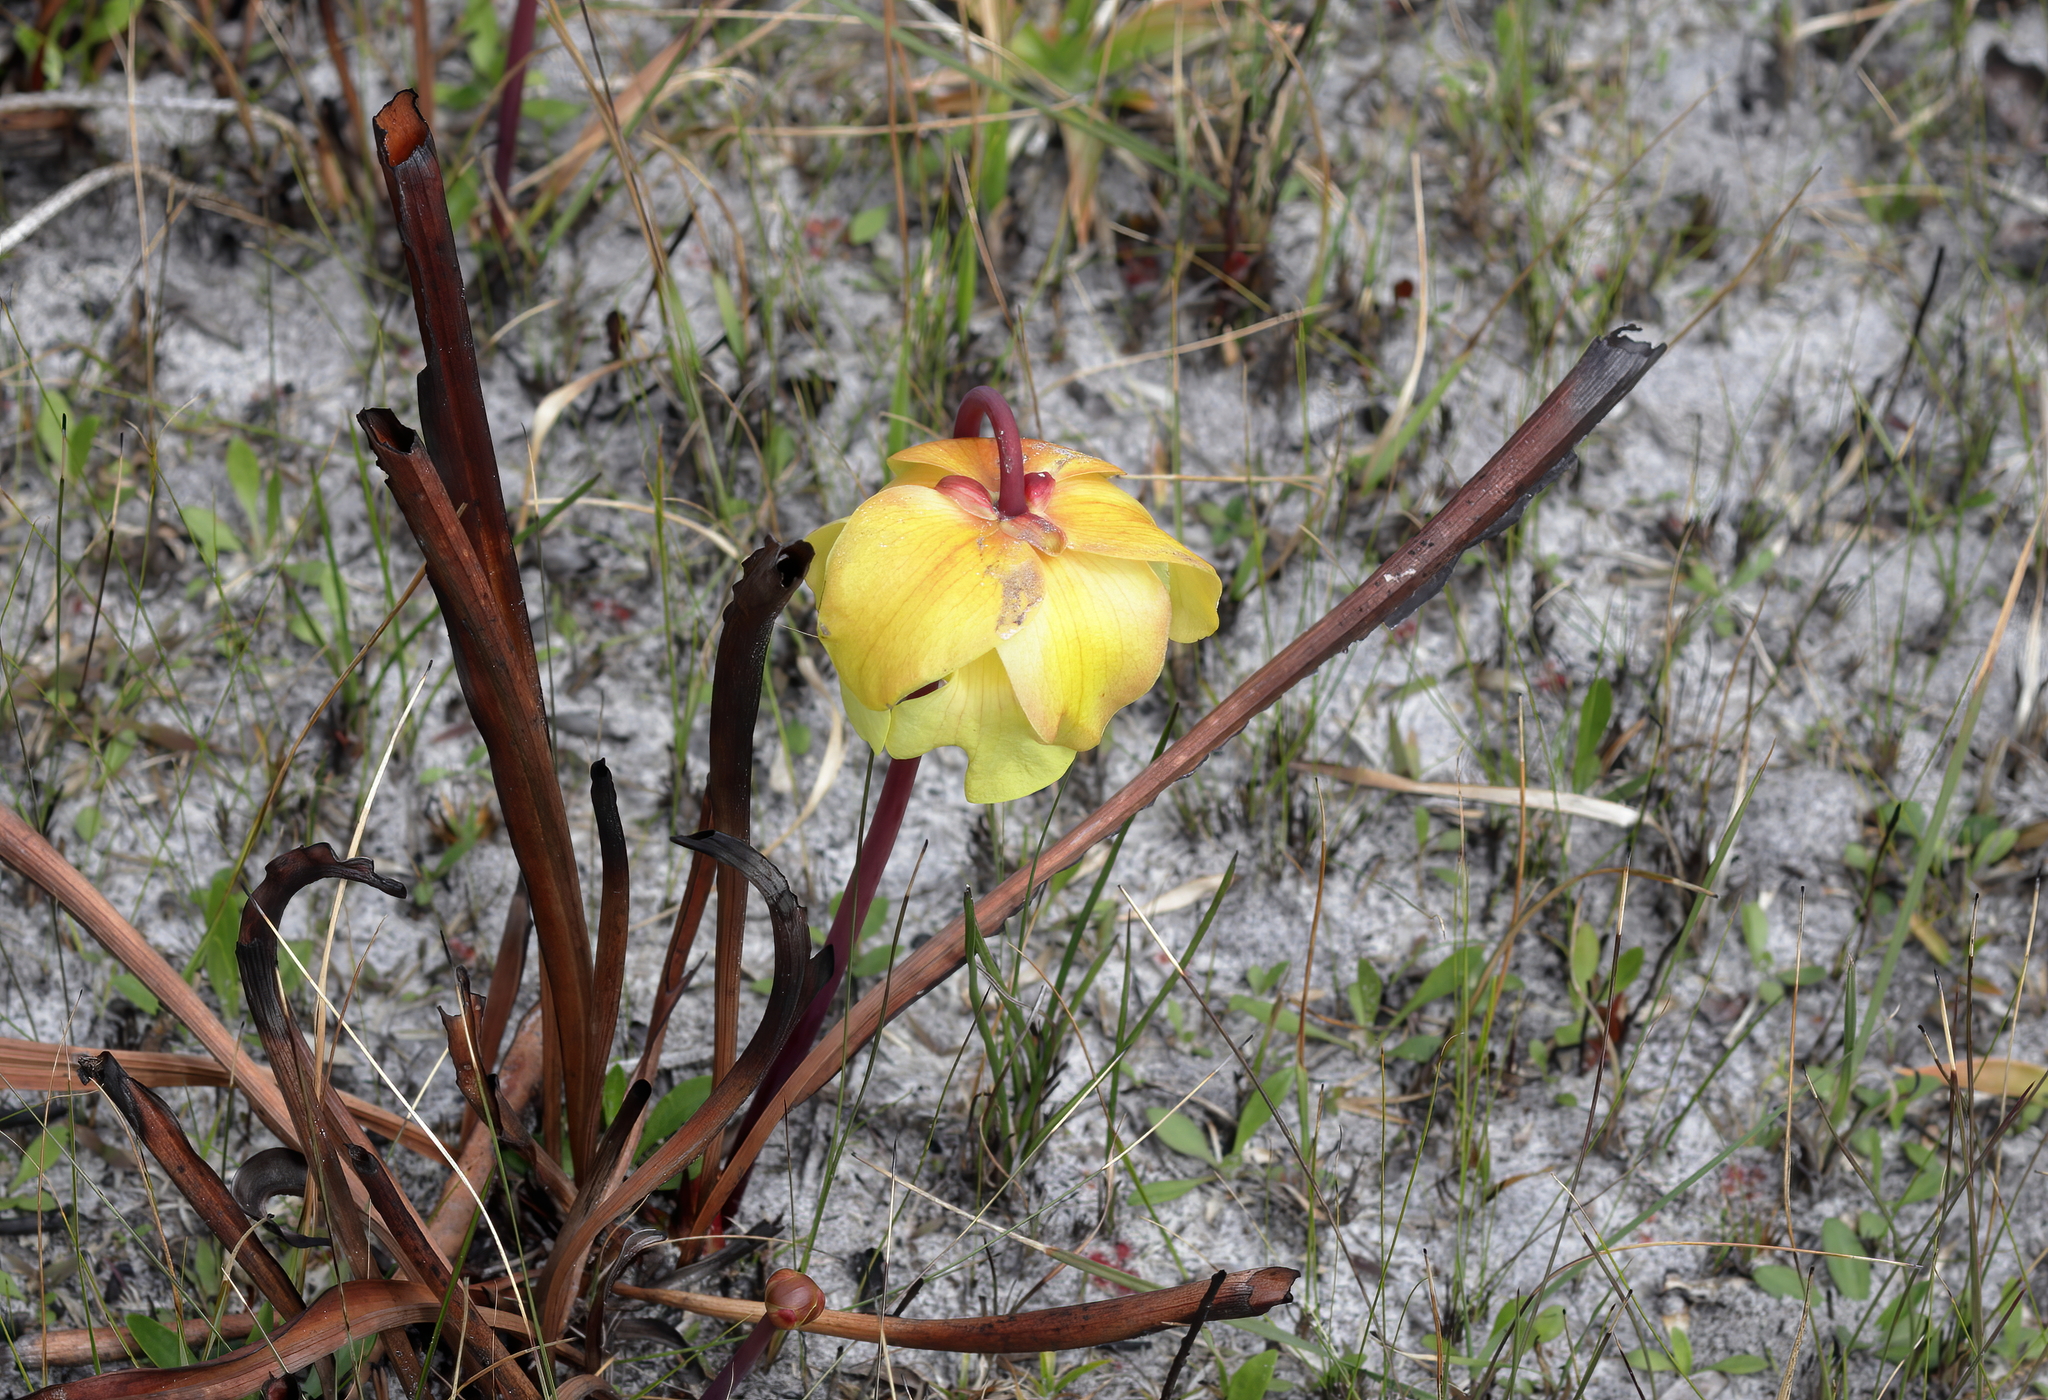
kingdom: Plantae
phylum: Tracheophyta
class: Magnoliopsida
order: Ericales
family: Sarraceniaceae
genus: Sarracenia
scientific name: Sarracenia alata
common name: Yellow trumpets
